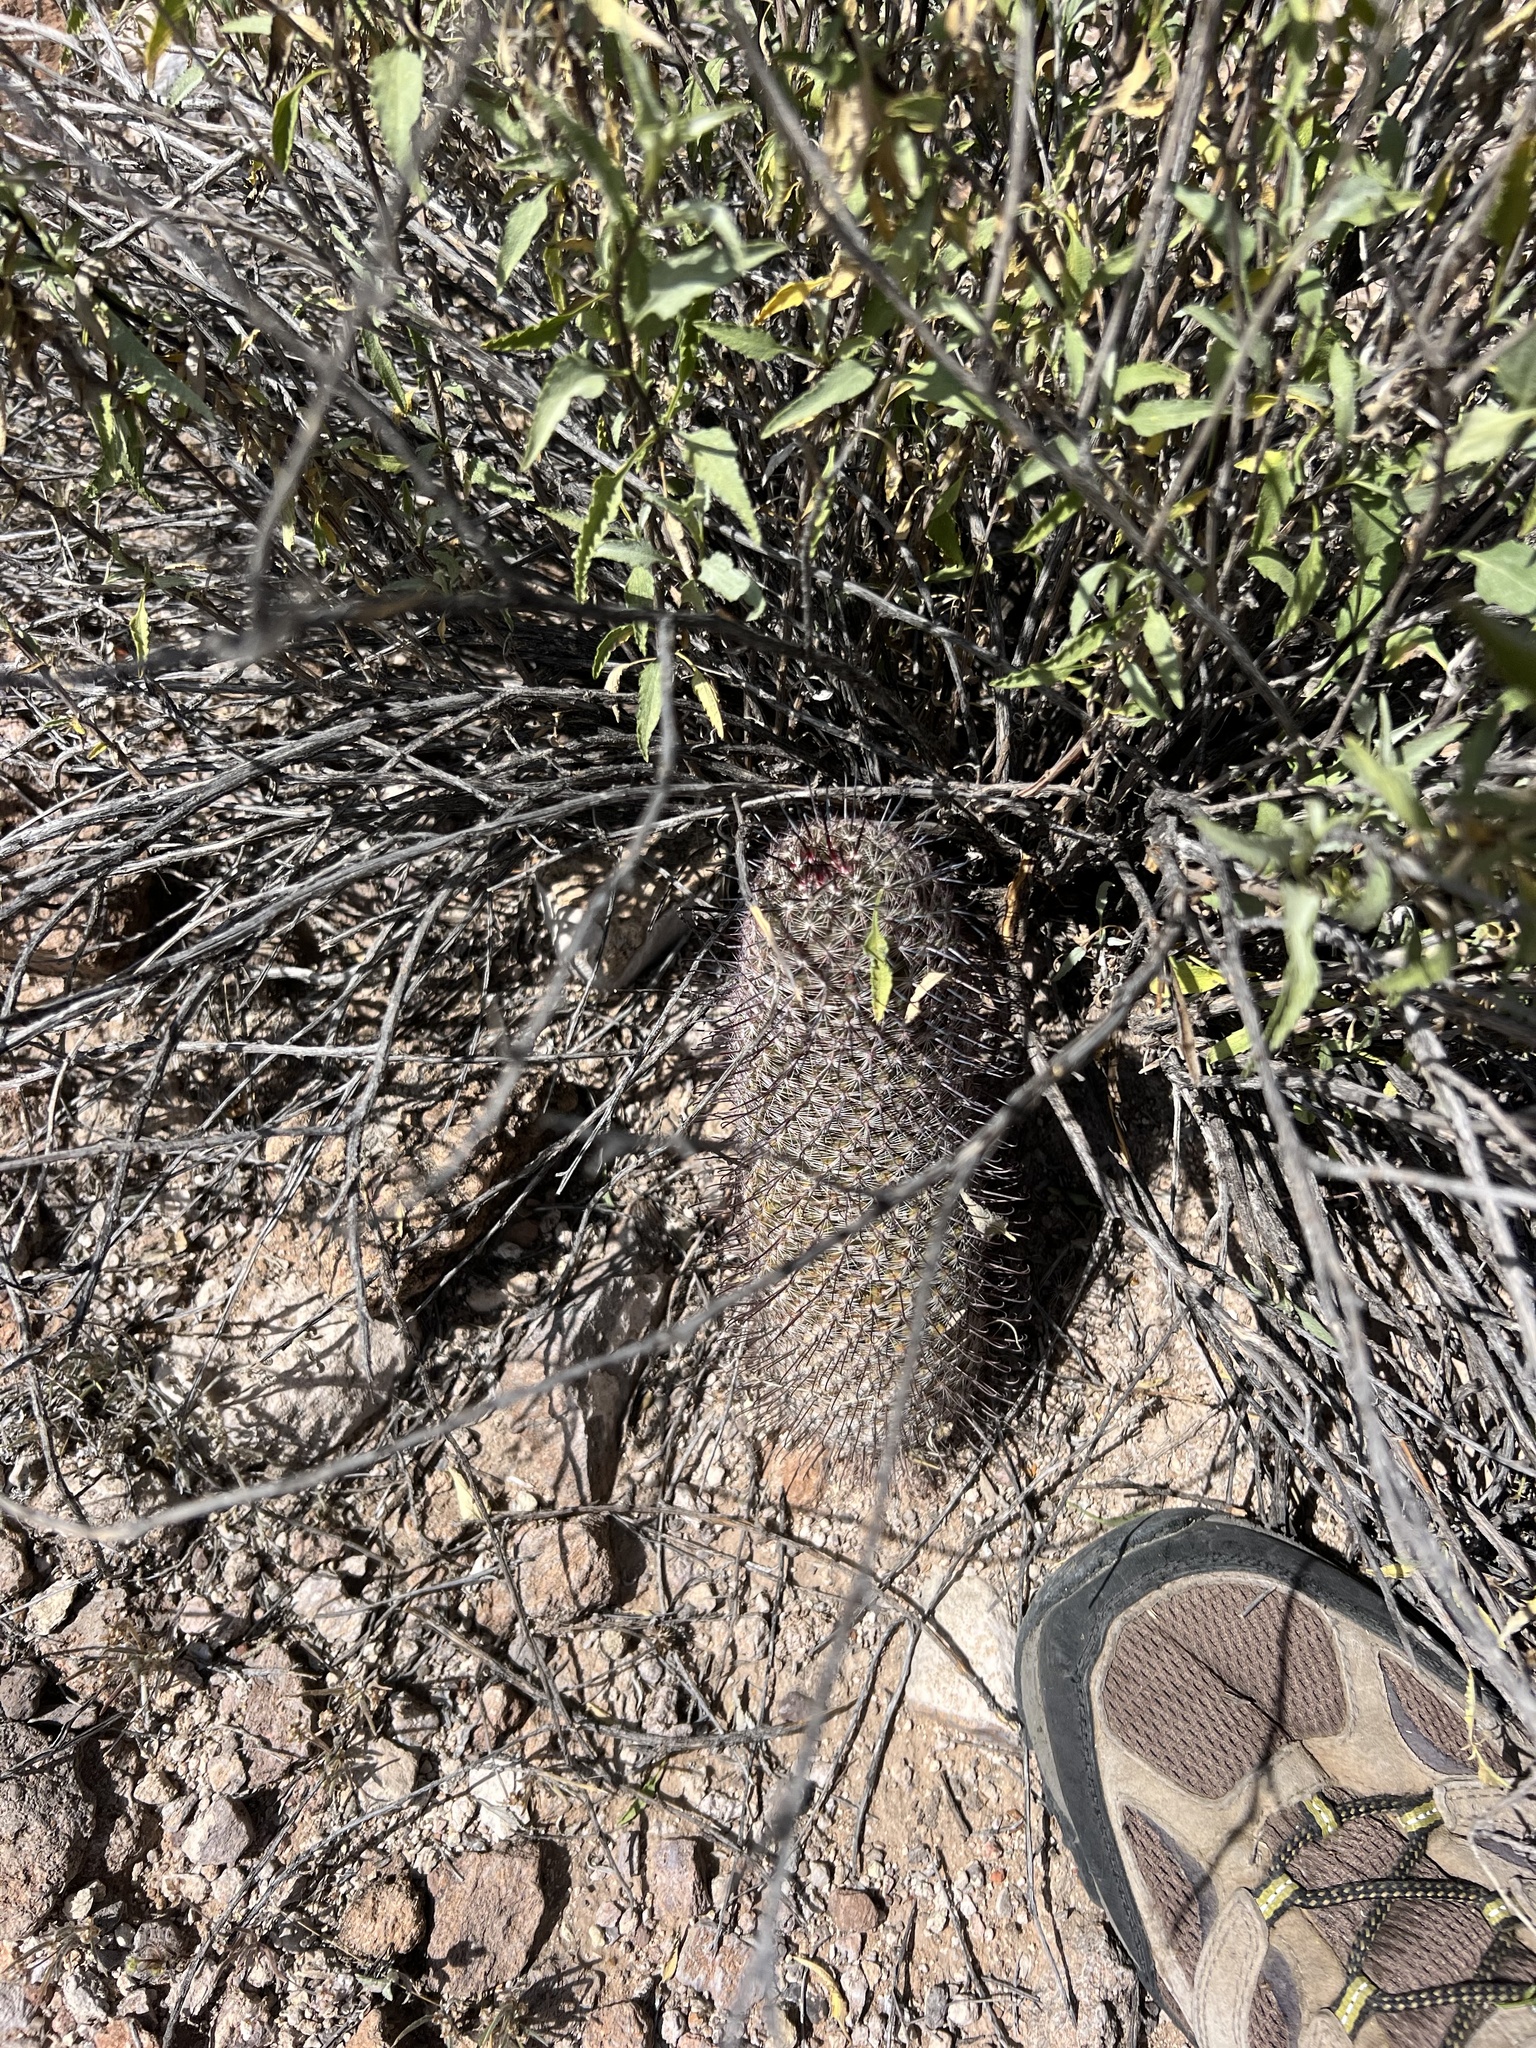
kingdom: Plantae
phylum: Tracheophyta
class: Magnoliopsida
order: Caryophyllales
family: Cactaceae
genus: Cochemiea
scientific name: Cochemiea grahamii
